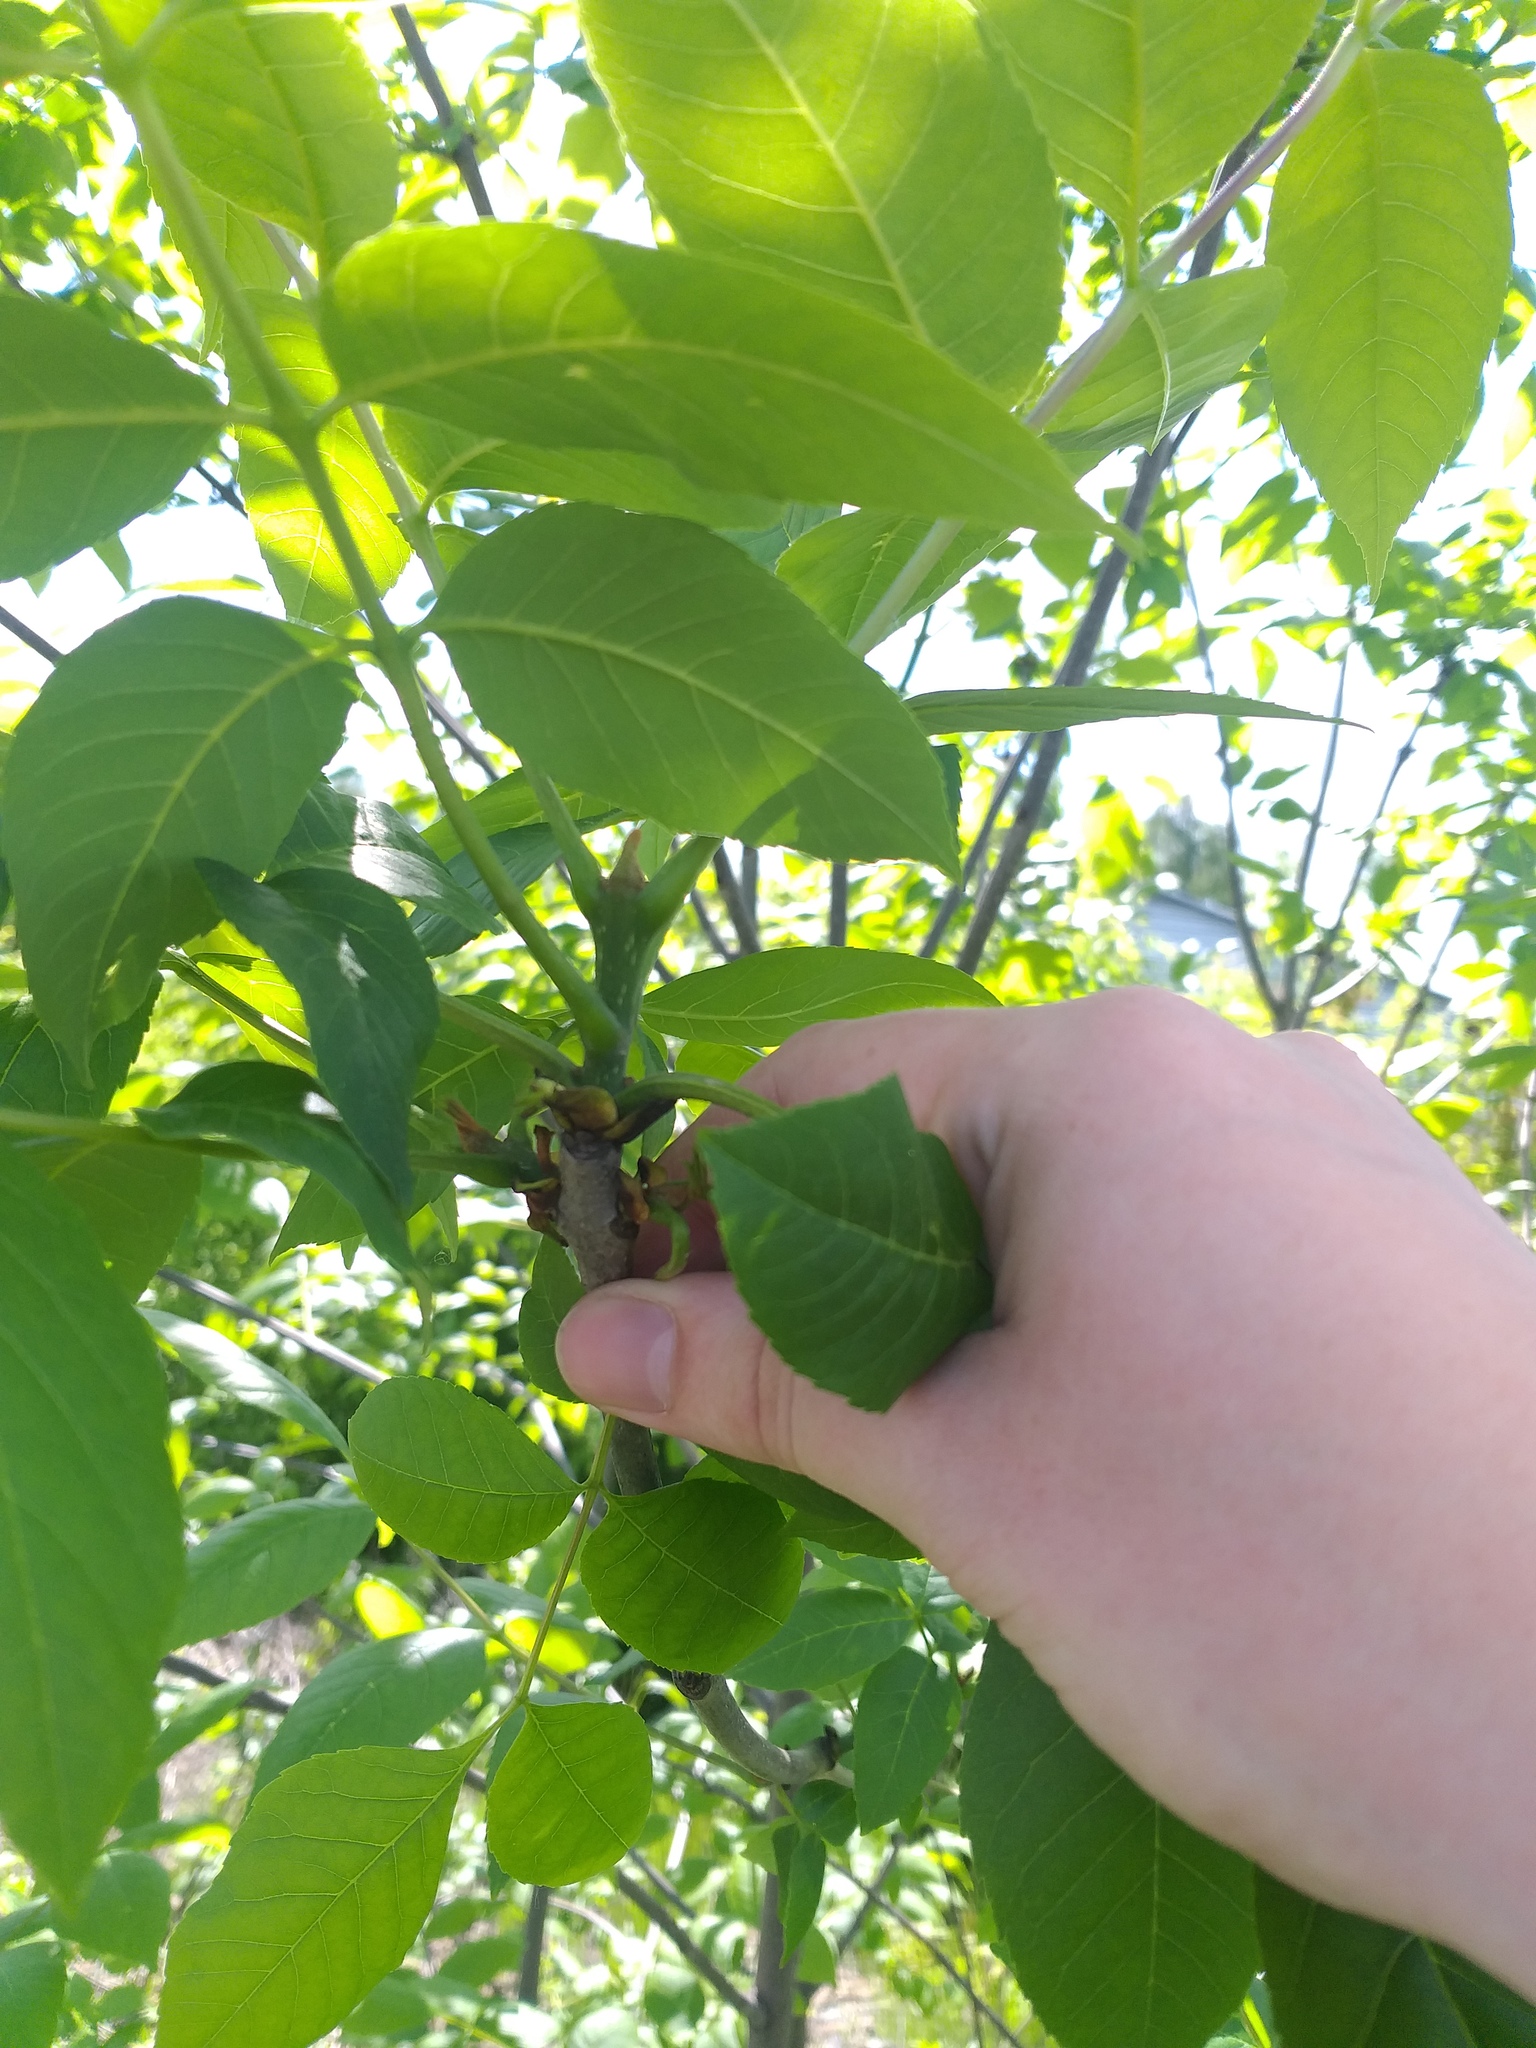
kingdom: Plantae
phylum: Tracheophyta
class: Magnoliopsida
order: Lamiales
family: Oleaceae
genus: Fraxinus
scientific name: Fraxinus pennsylvanica
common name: Green ash
